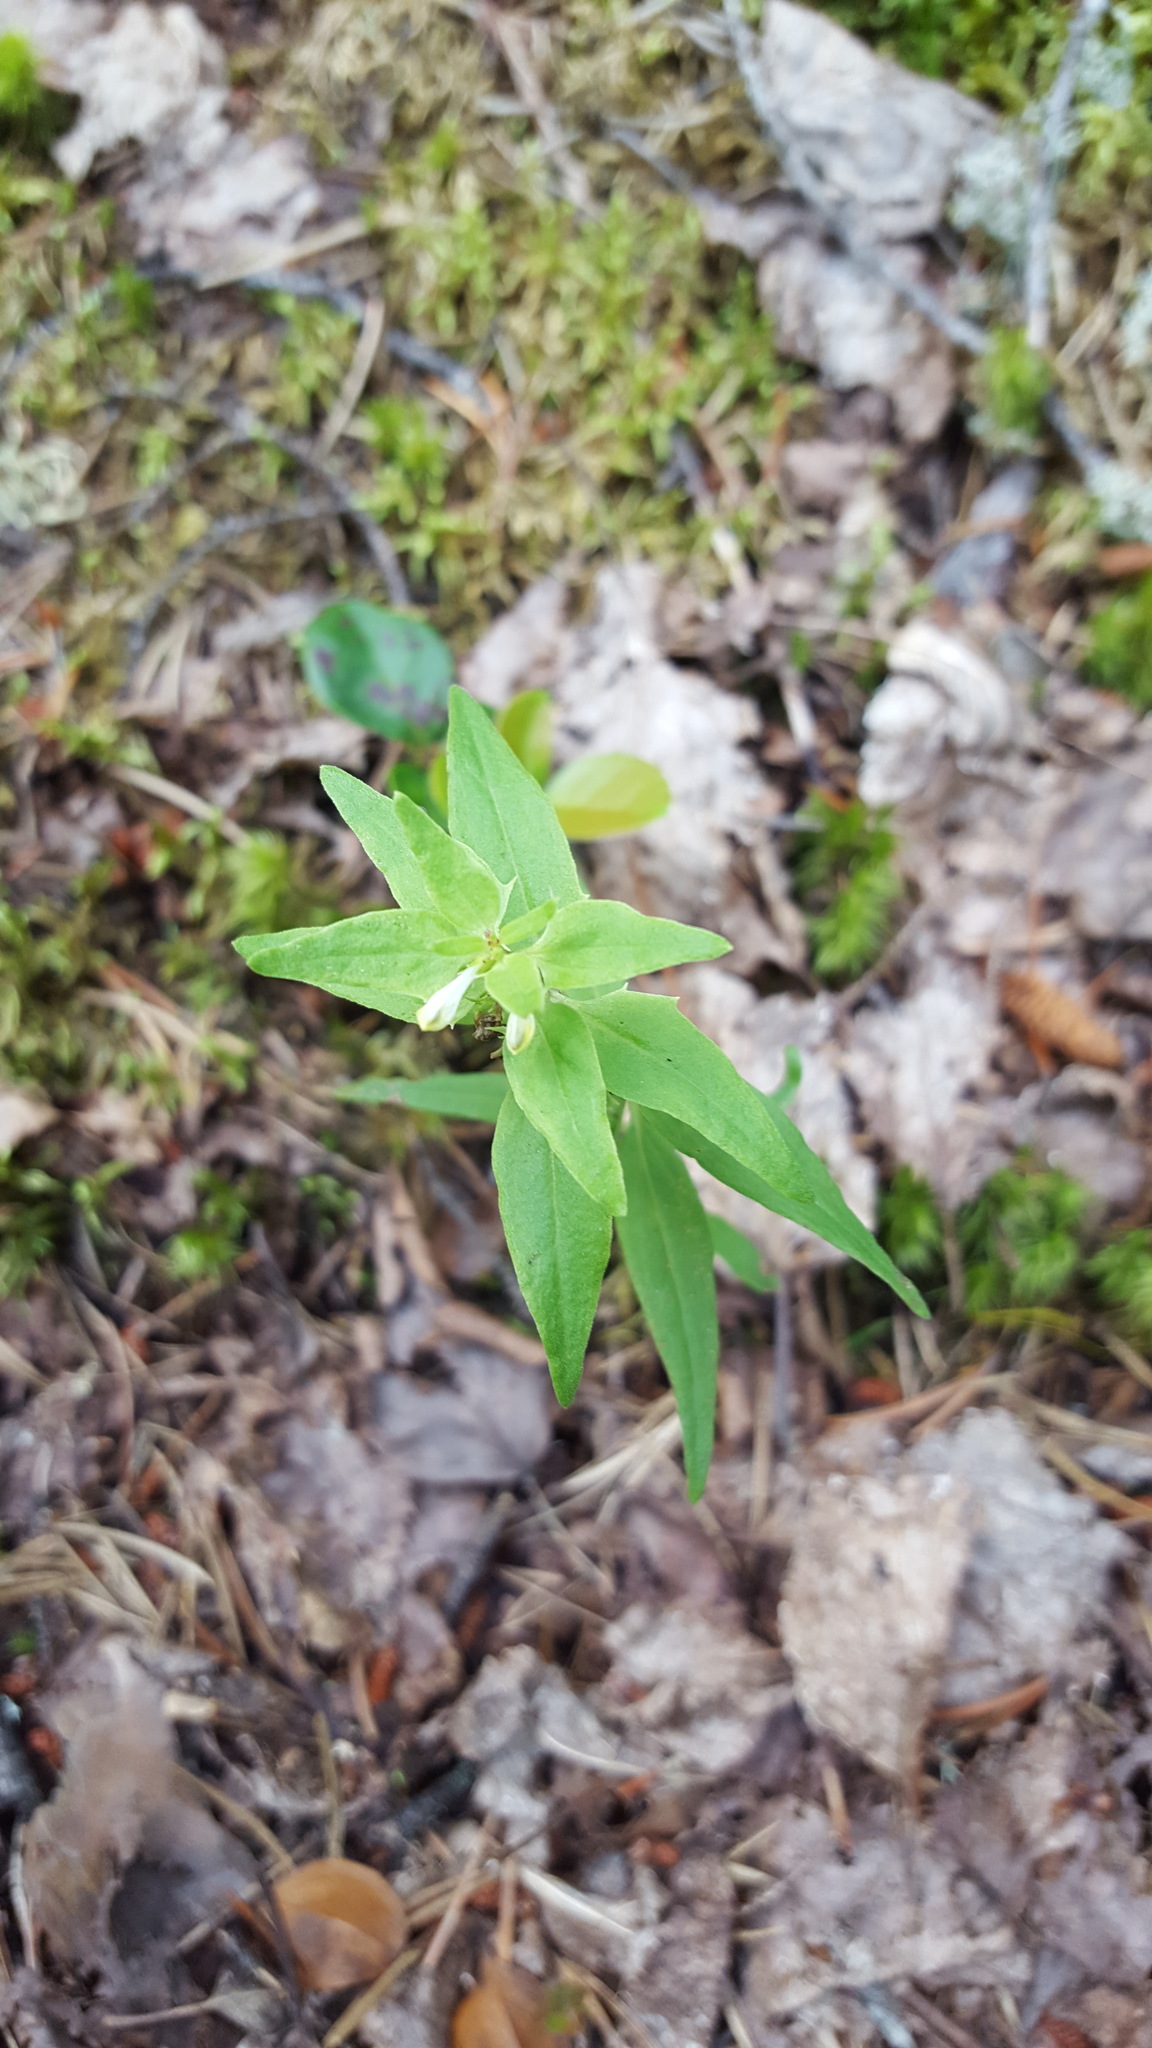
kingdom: Plantae
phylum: Tracheophyta
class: Magnoliopsida
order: Lamiales
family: Orobanchaceae
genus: Melampyrum
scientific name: Melampyrum lineare
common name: American cow-wheat
